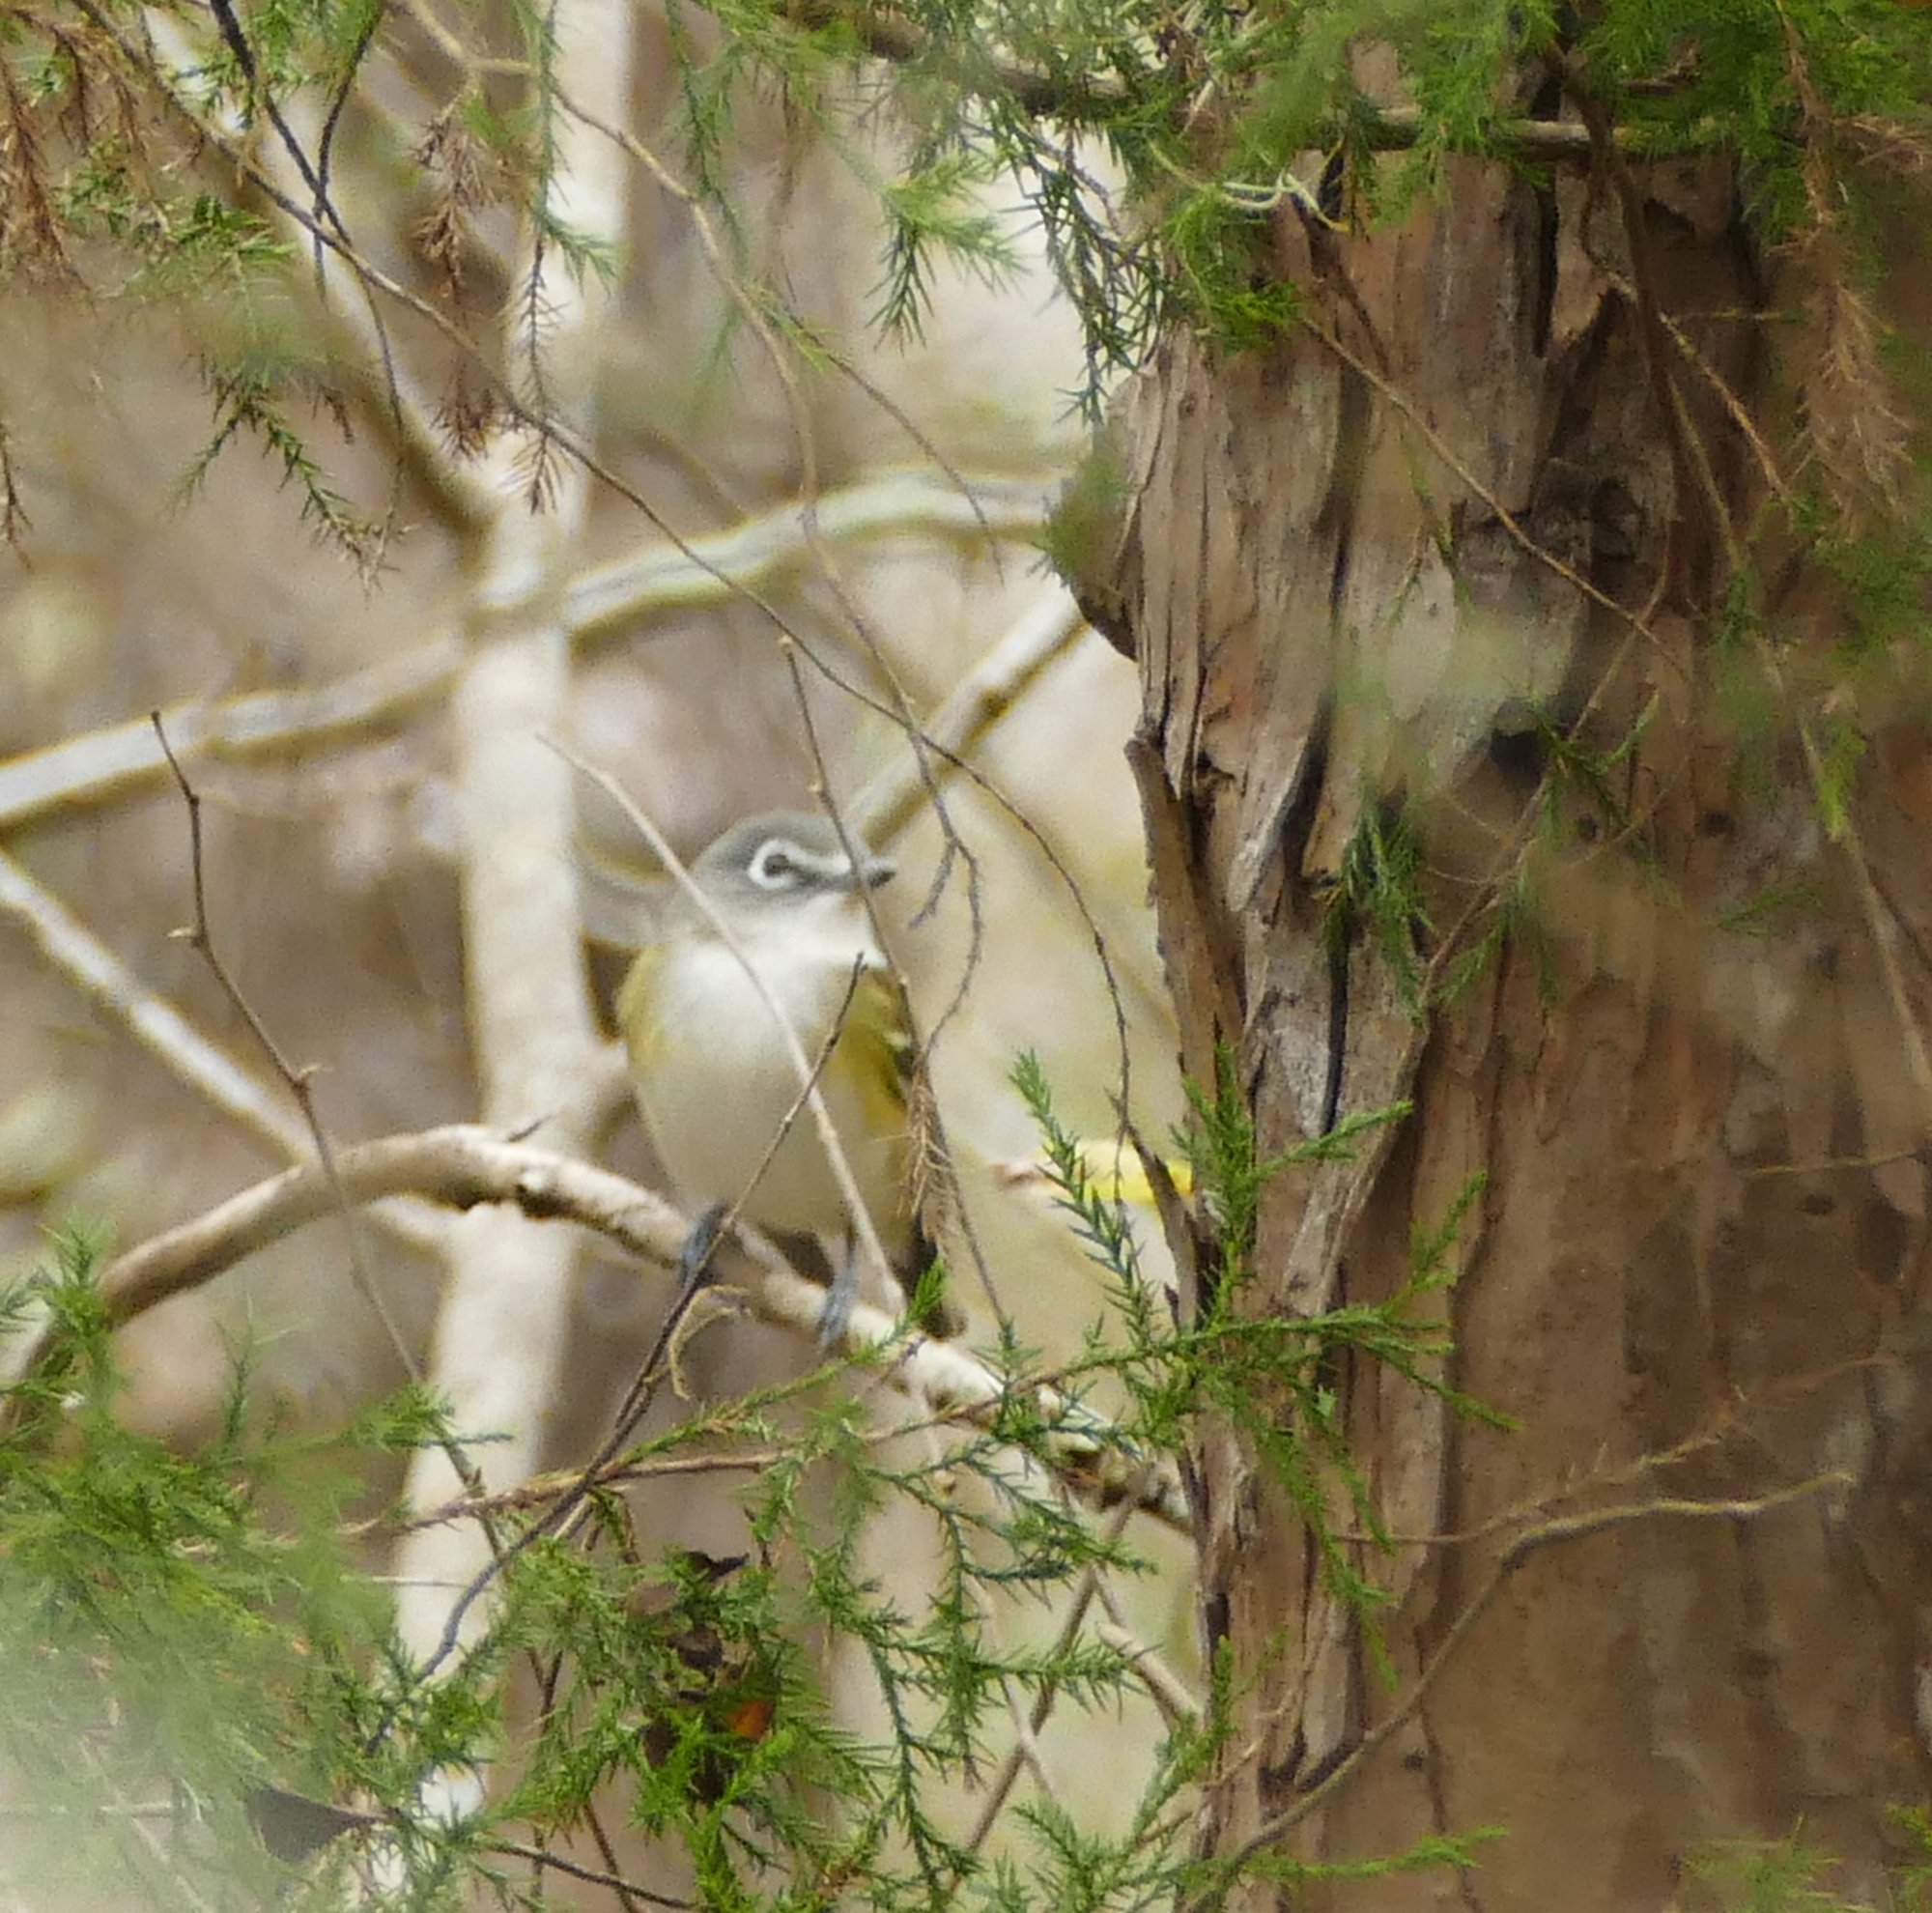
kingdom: Animalia
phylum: Chordata
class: Aves
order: Passeriformes
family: Vireonidae
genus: Vireo
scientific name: Vireo solitarius
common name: Blue-headed vireo
